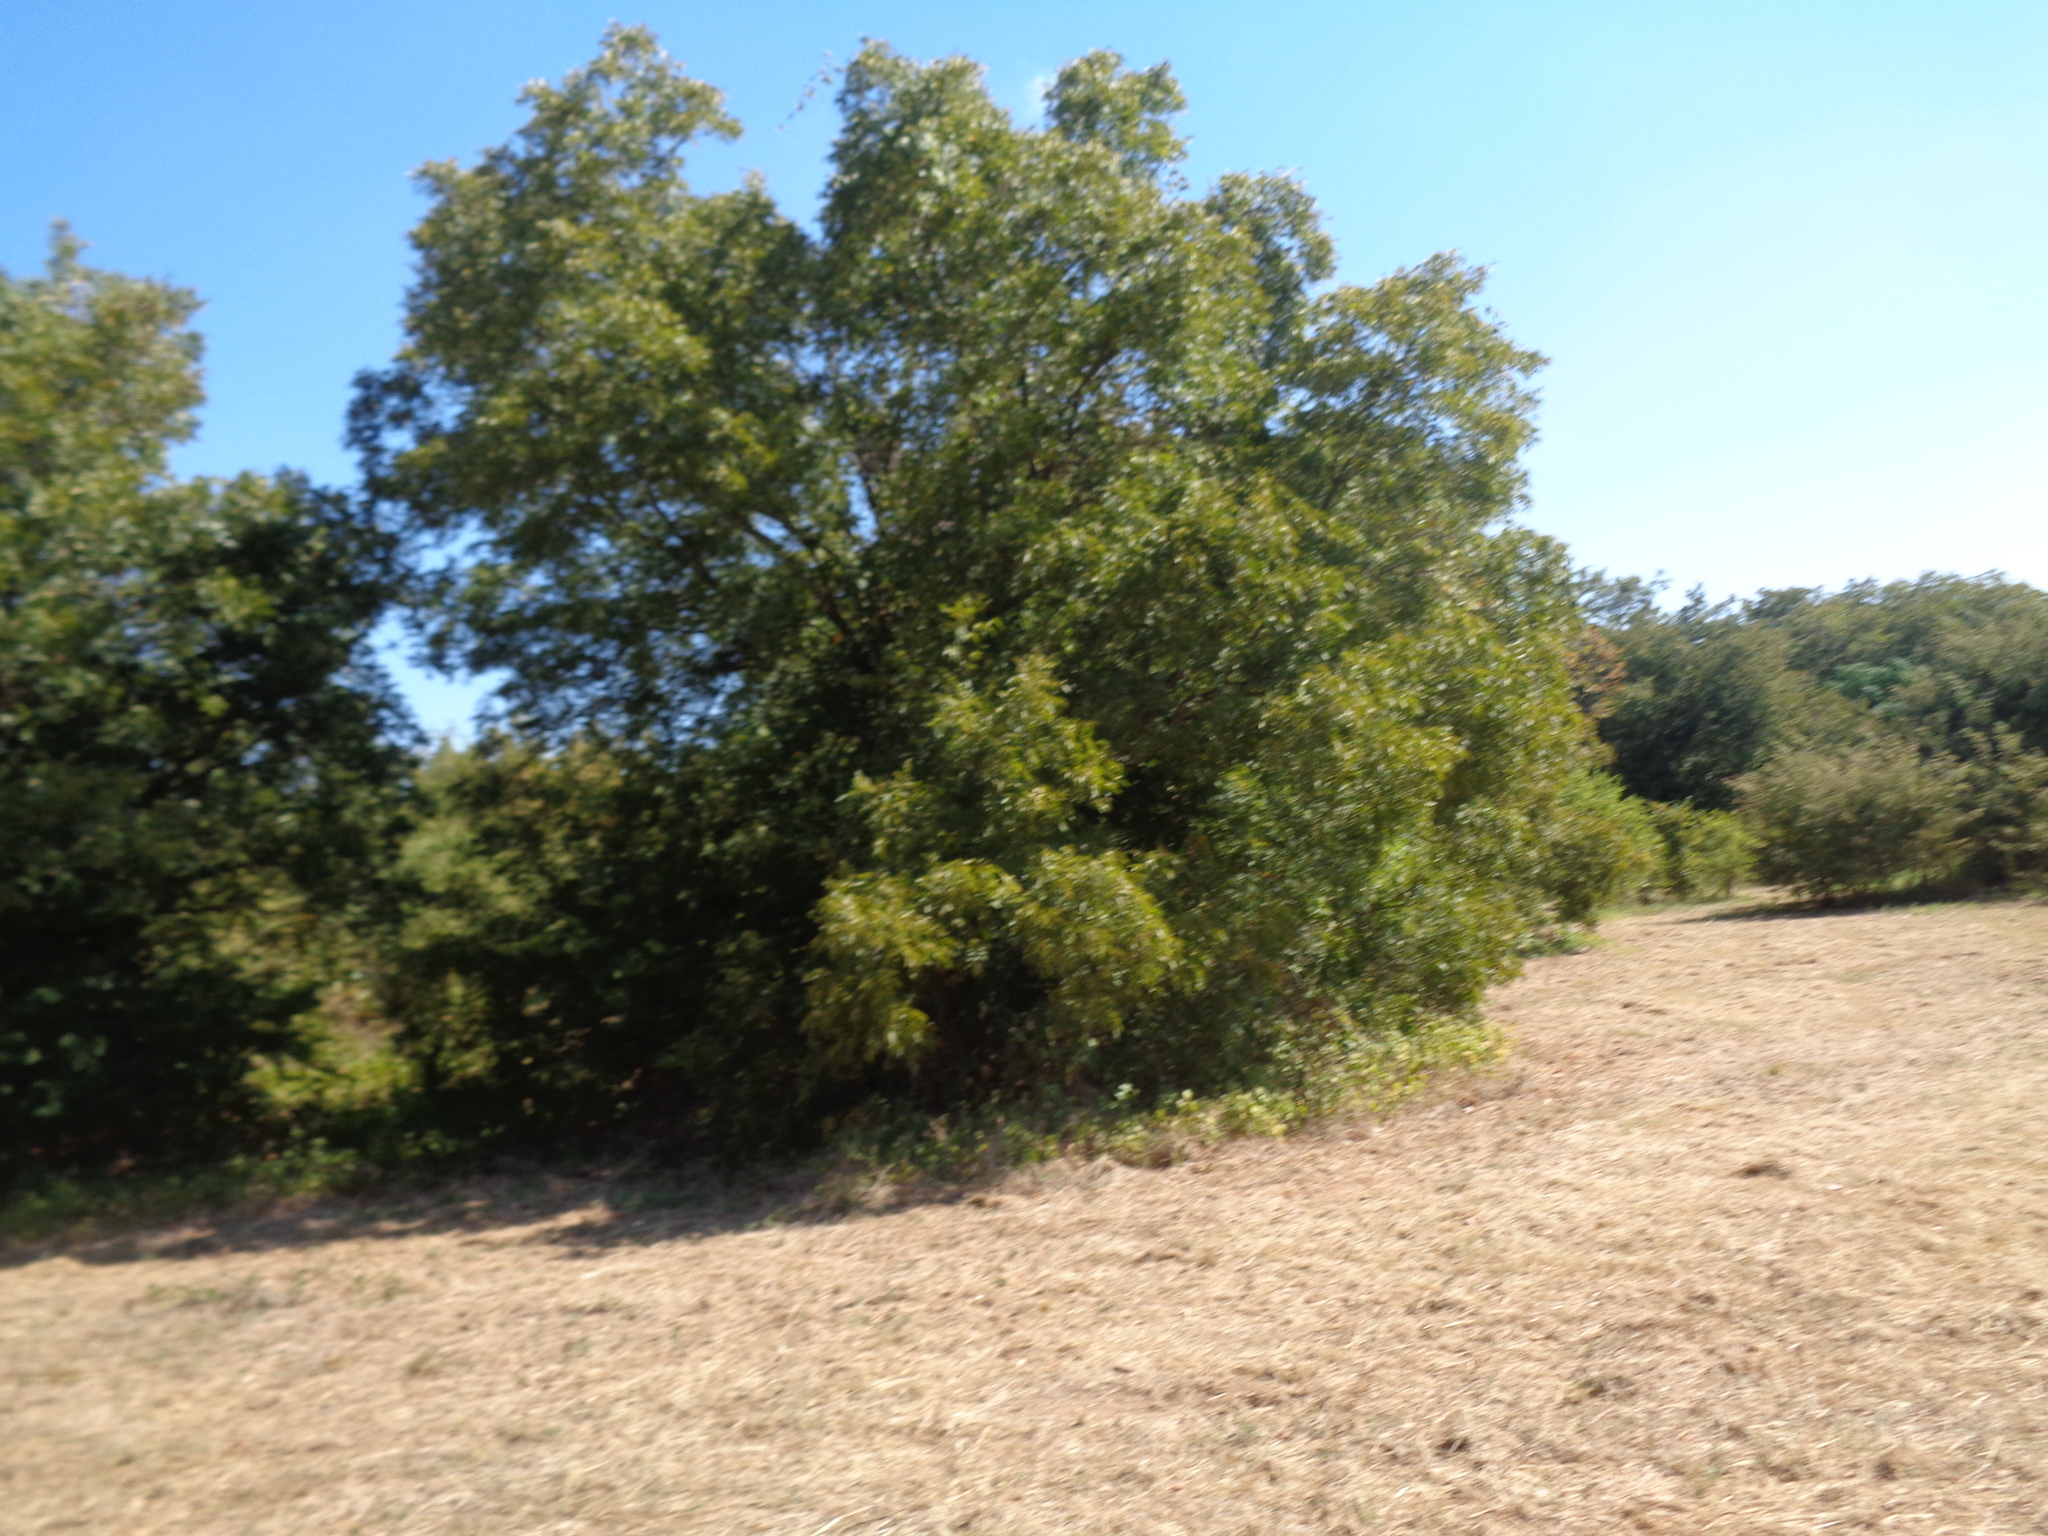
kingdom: Plantae
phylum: Tracheophyta
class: Magnoliopsida
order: Fagales
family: Juglandaceae
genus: Carya
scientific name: Carya illinoinensis
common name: Pecan
